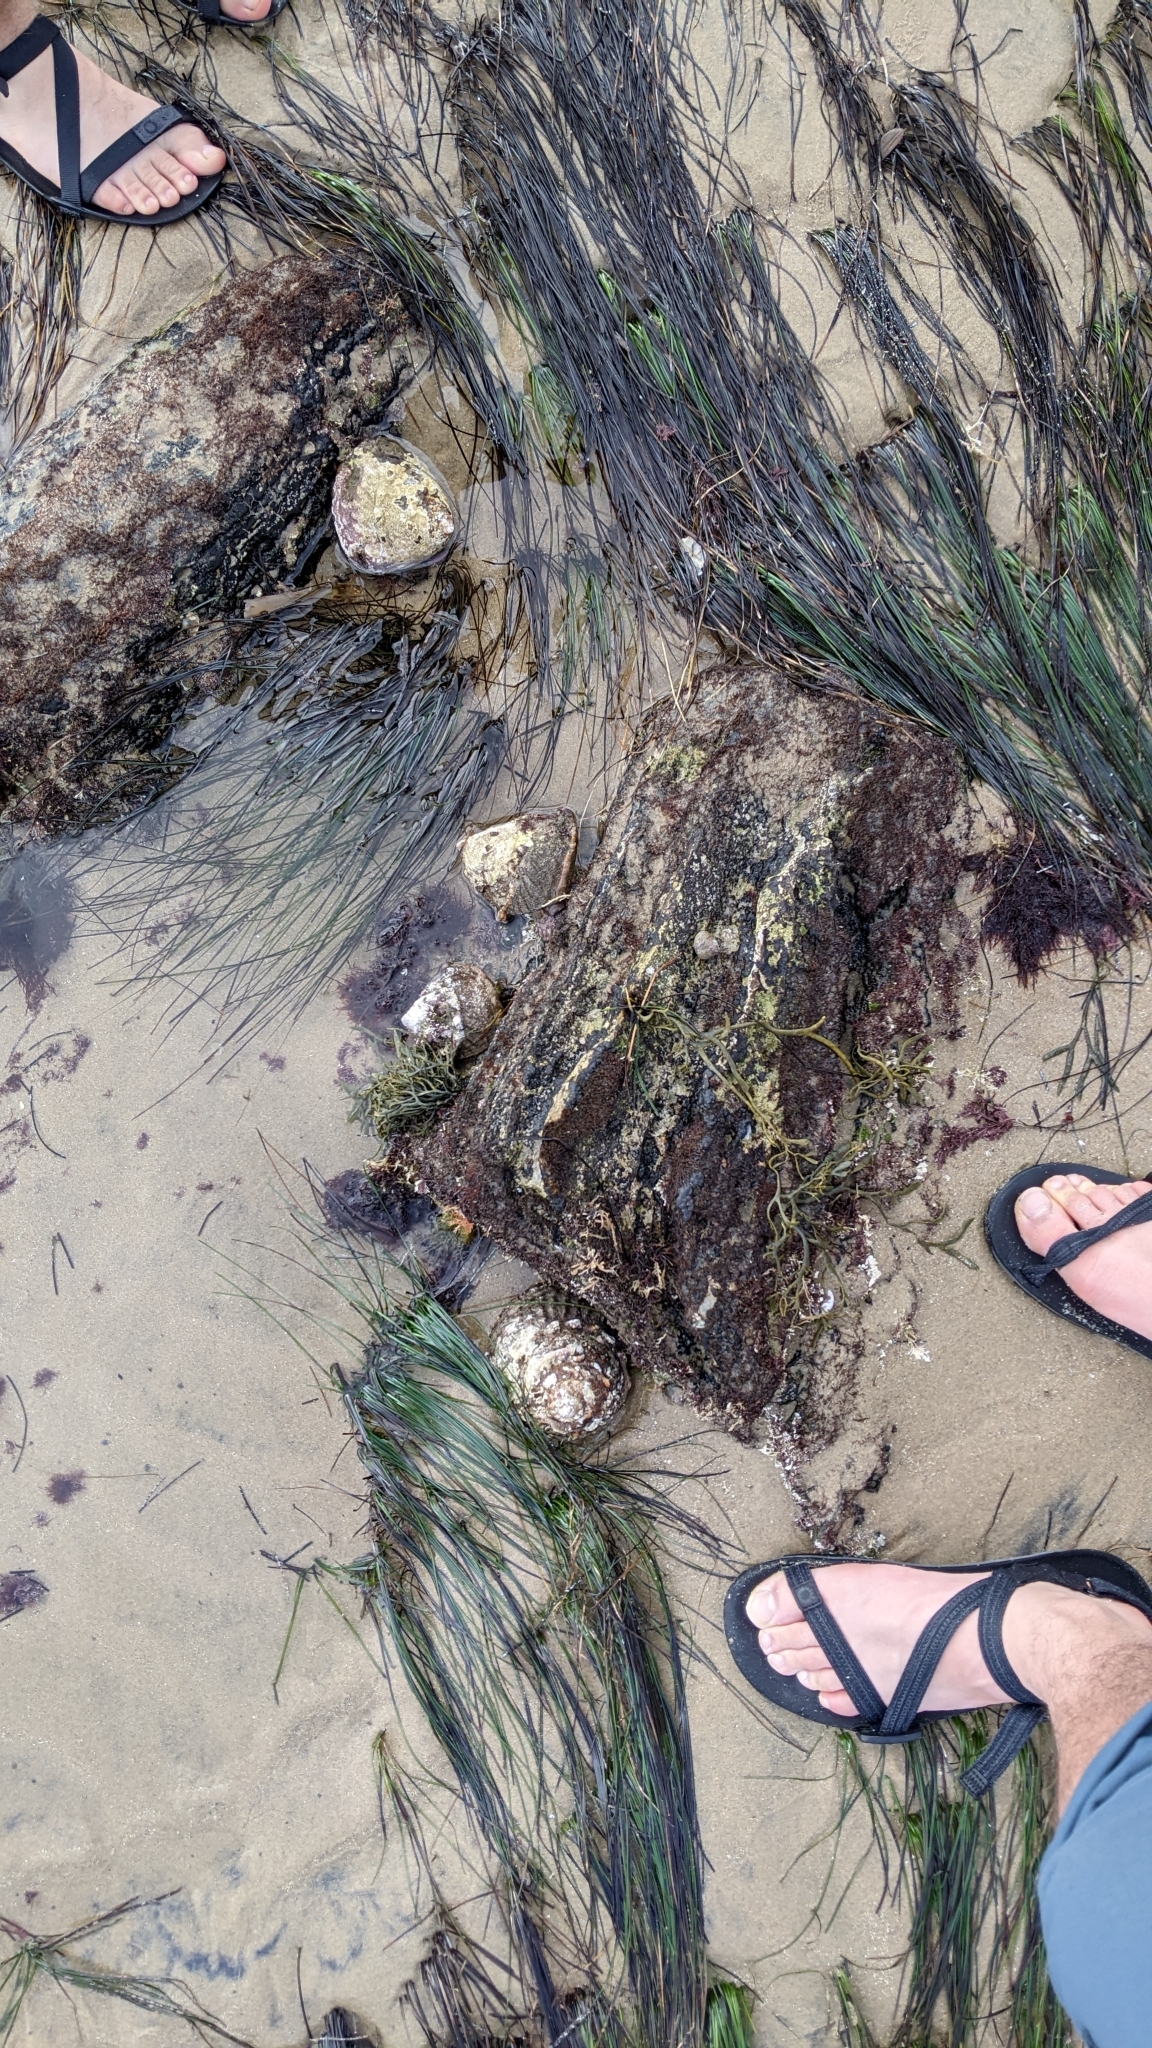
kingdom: Animalia
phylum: Mollusca
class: Gastropoda
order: Trochida
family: Turbinidae
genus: Megastraea
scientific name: Megastraea undosa
